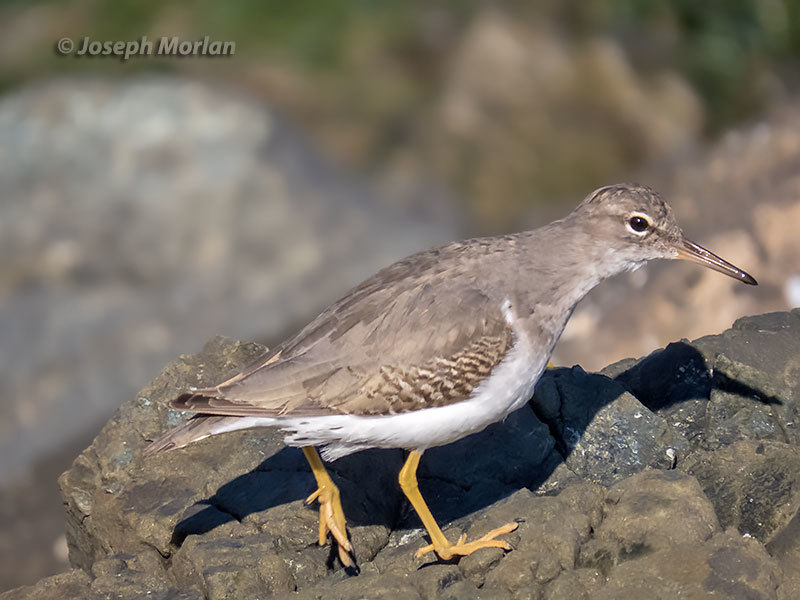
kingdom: Animalia
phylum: Chordata
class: Aves
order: Charadriiformes
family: Scolopacidae
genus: Actitis
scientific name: Actitis macularius
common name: Spotted sandpiper
